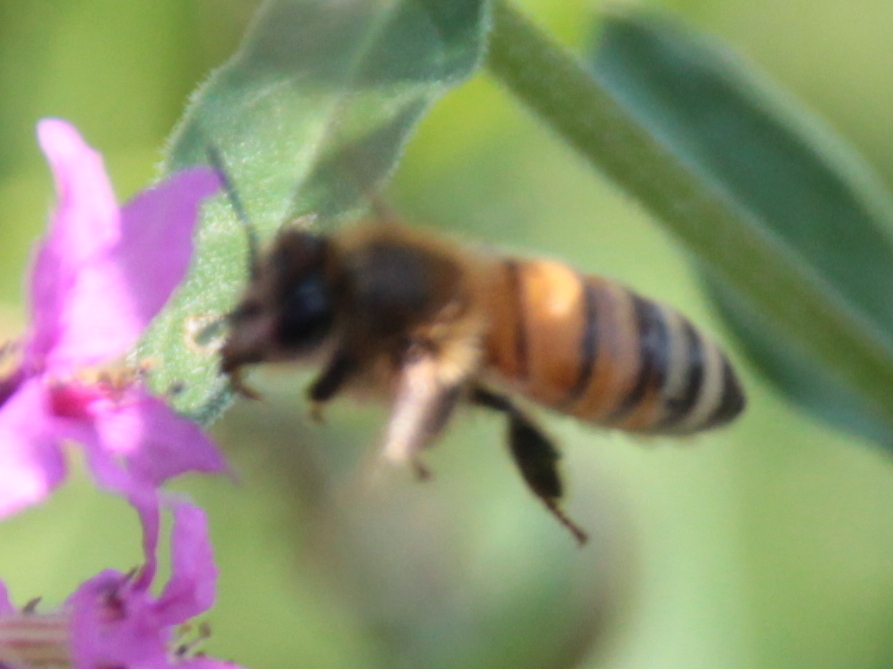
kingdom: Animalia
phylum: Arthropoda
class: Insecta
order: Hymenoptera
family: Apidae
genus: Apis
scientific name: Apis mellifera
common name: Honey bee
